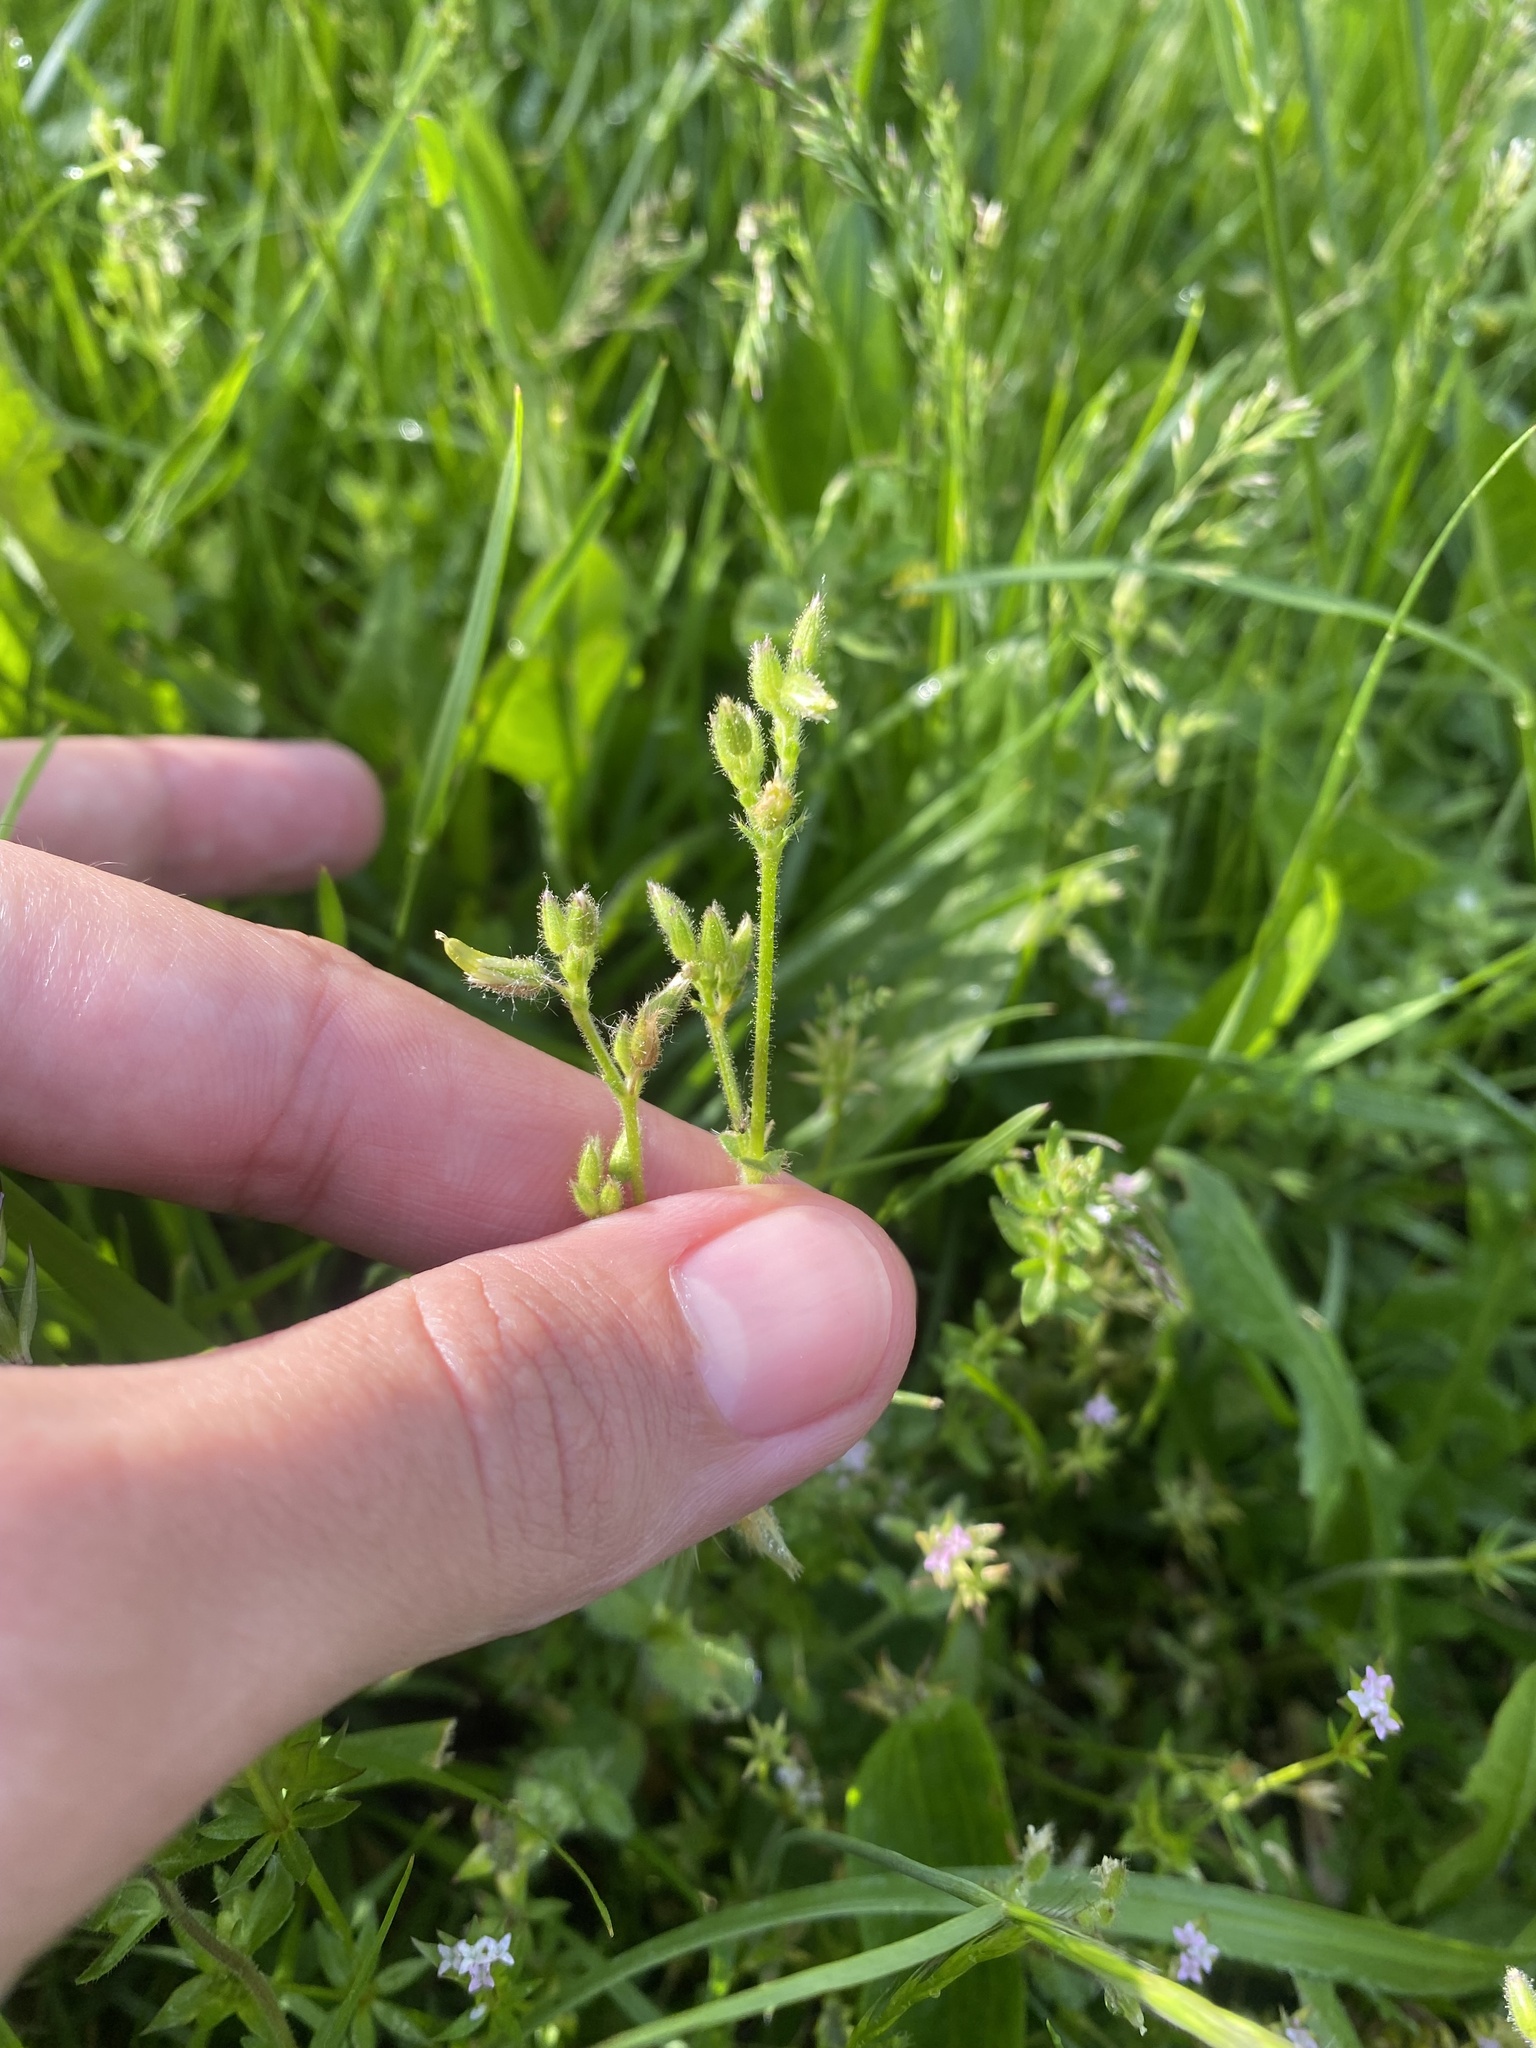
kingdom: Plantae
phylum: Tracheophyta
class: Magnoliopsida
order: Caryophyllales
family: Caryophyllaceae
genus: Cerastium
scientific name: Cerastium semidecandrum
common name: Little mouse-ear
